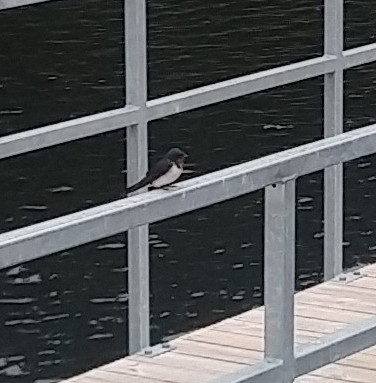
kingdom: Animalia
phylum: Chordata
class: Aves
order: Passeriformes
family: Hirundinidae
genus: Hirundo
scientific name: Hirundo rustica
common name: Barn swallow
